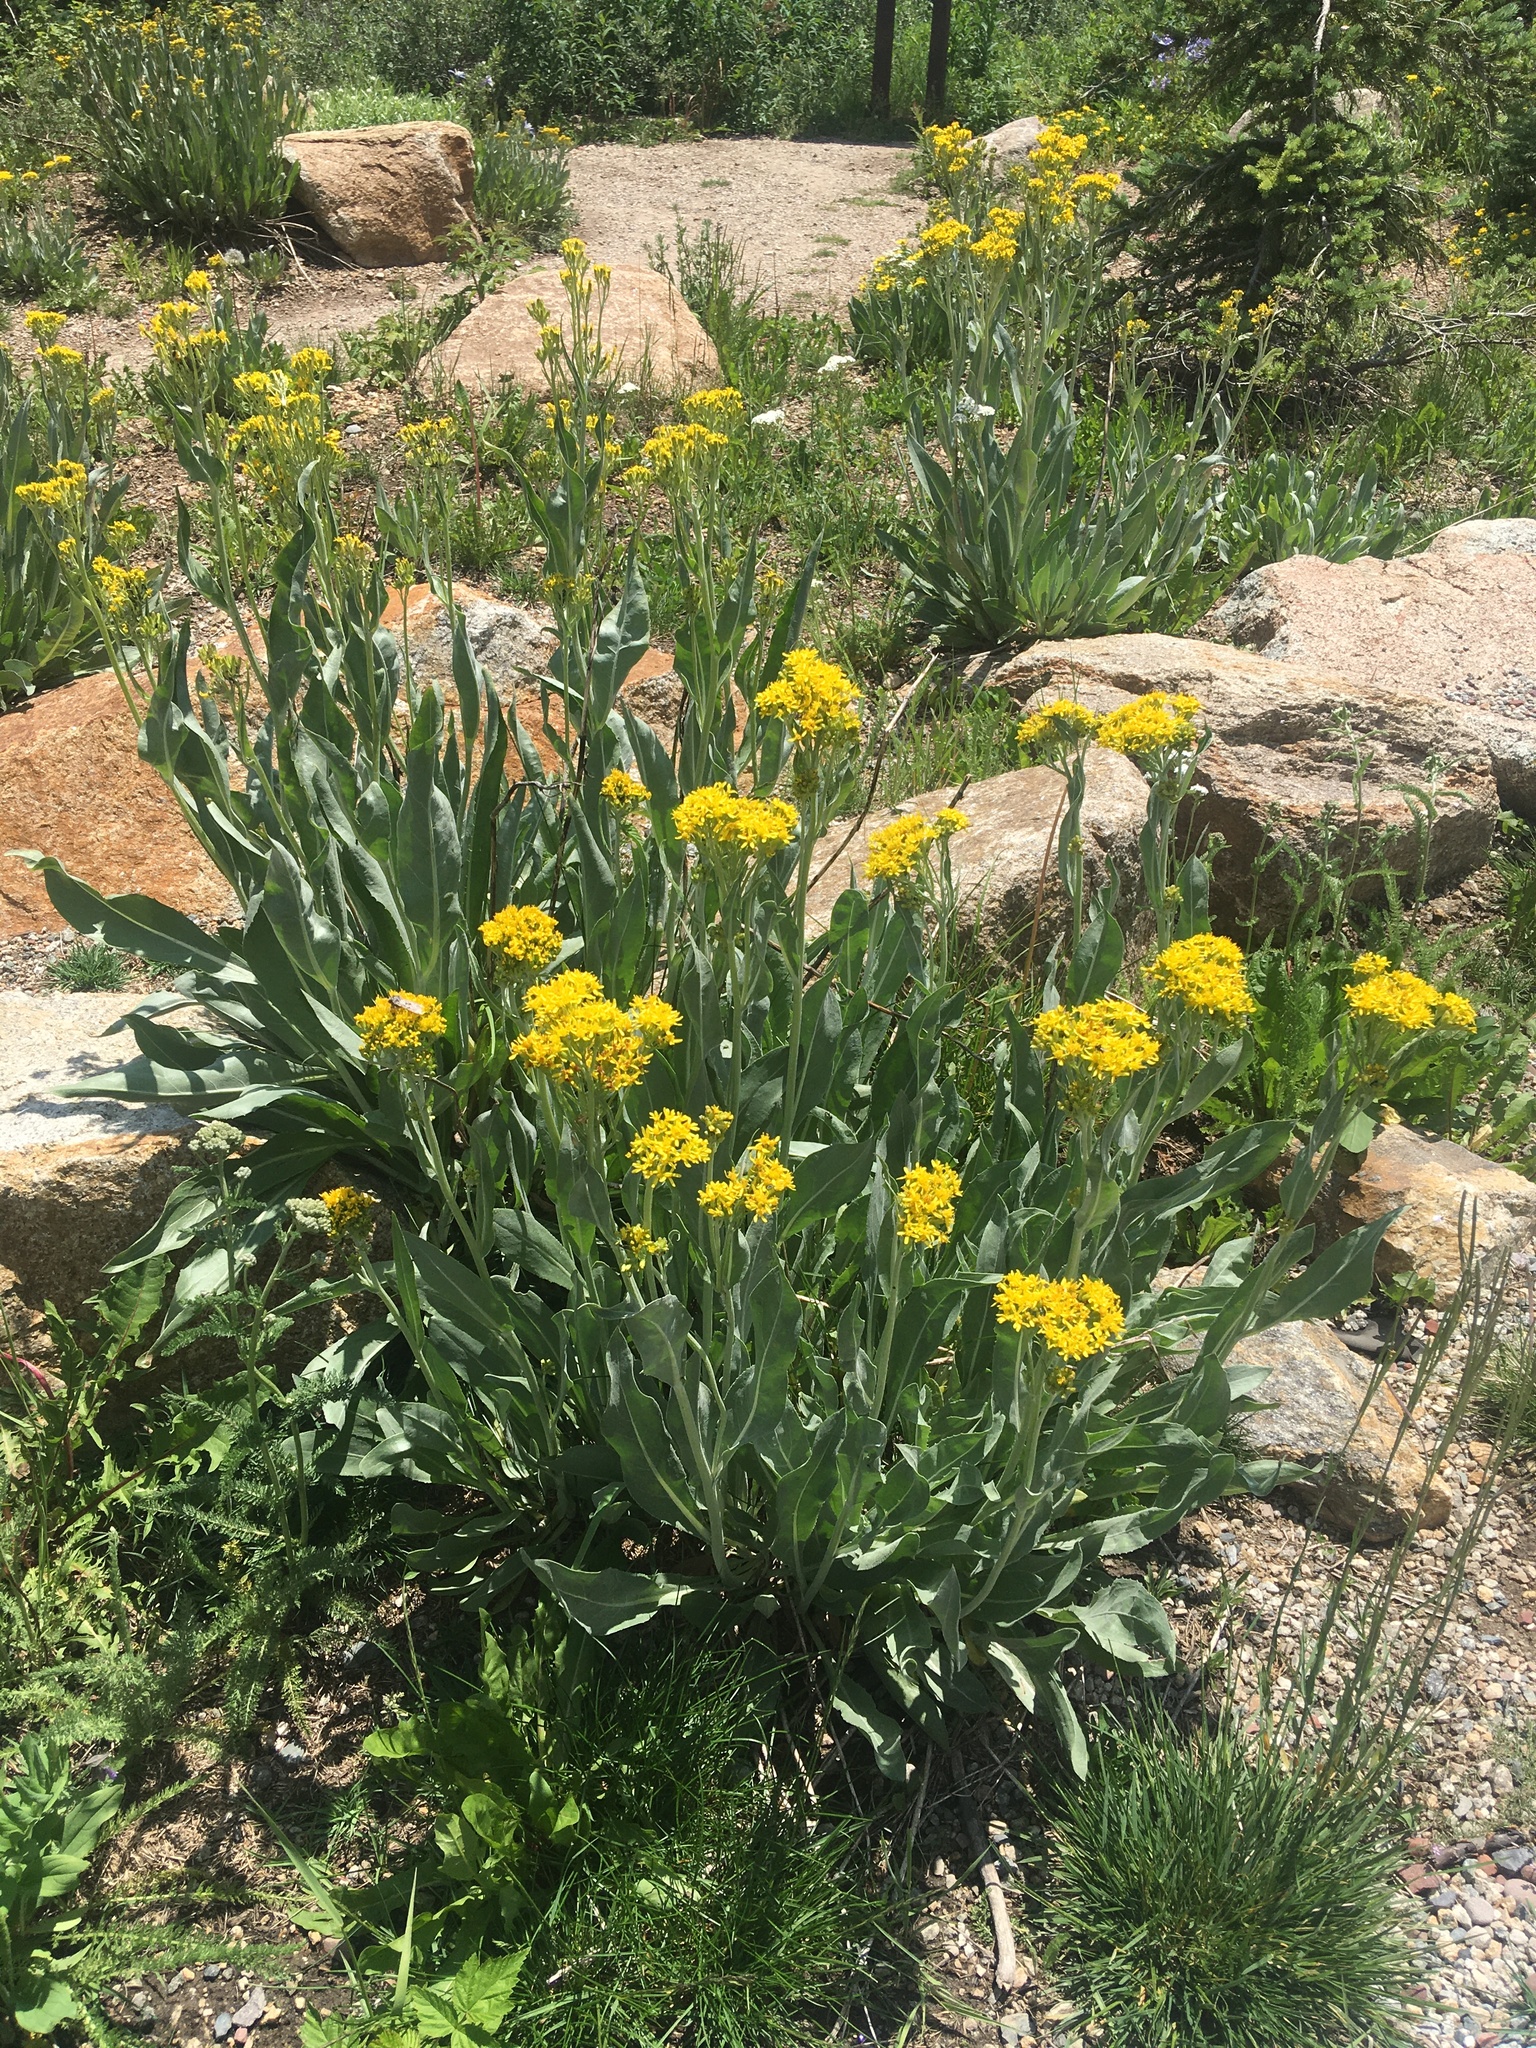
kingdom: Plantae
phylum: Tracheophyta
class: Magnoliopsida
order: Asterales
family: Asteraceae
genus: Senecio
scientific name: Senecio atratus
